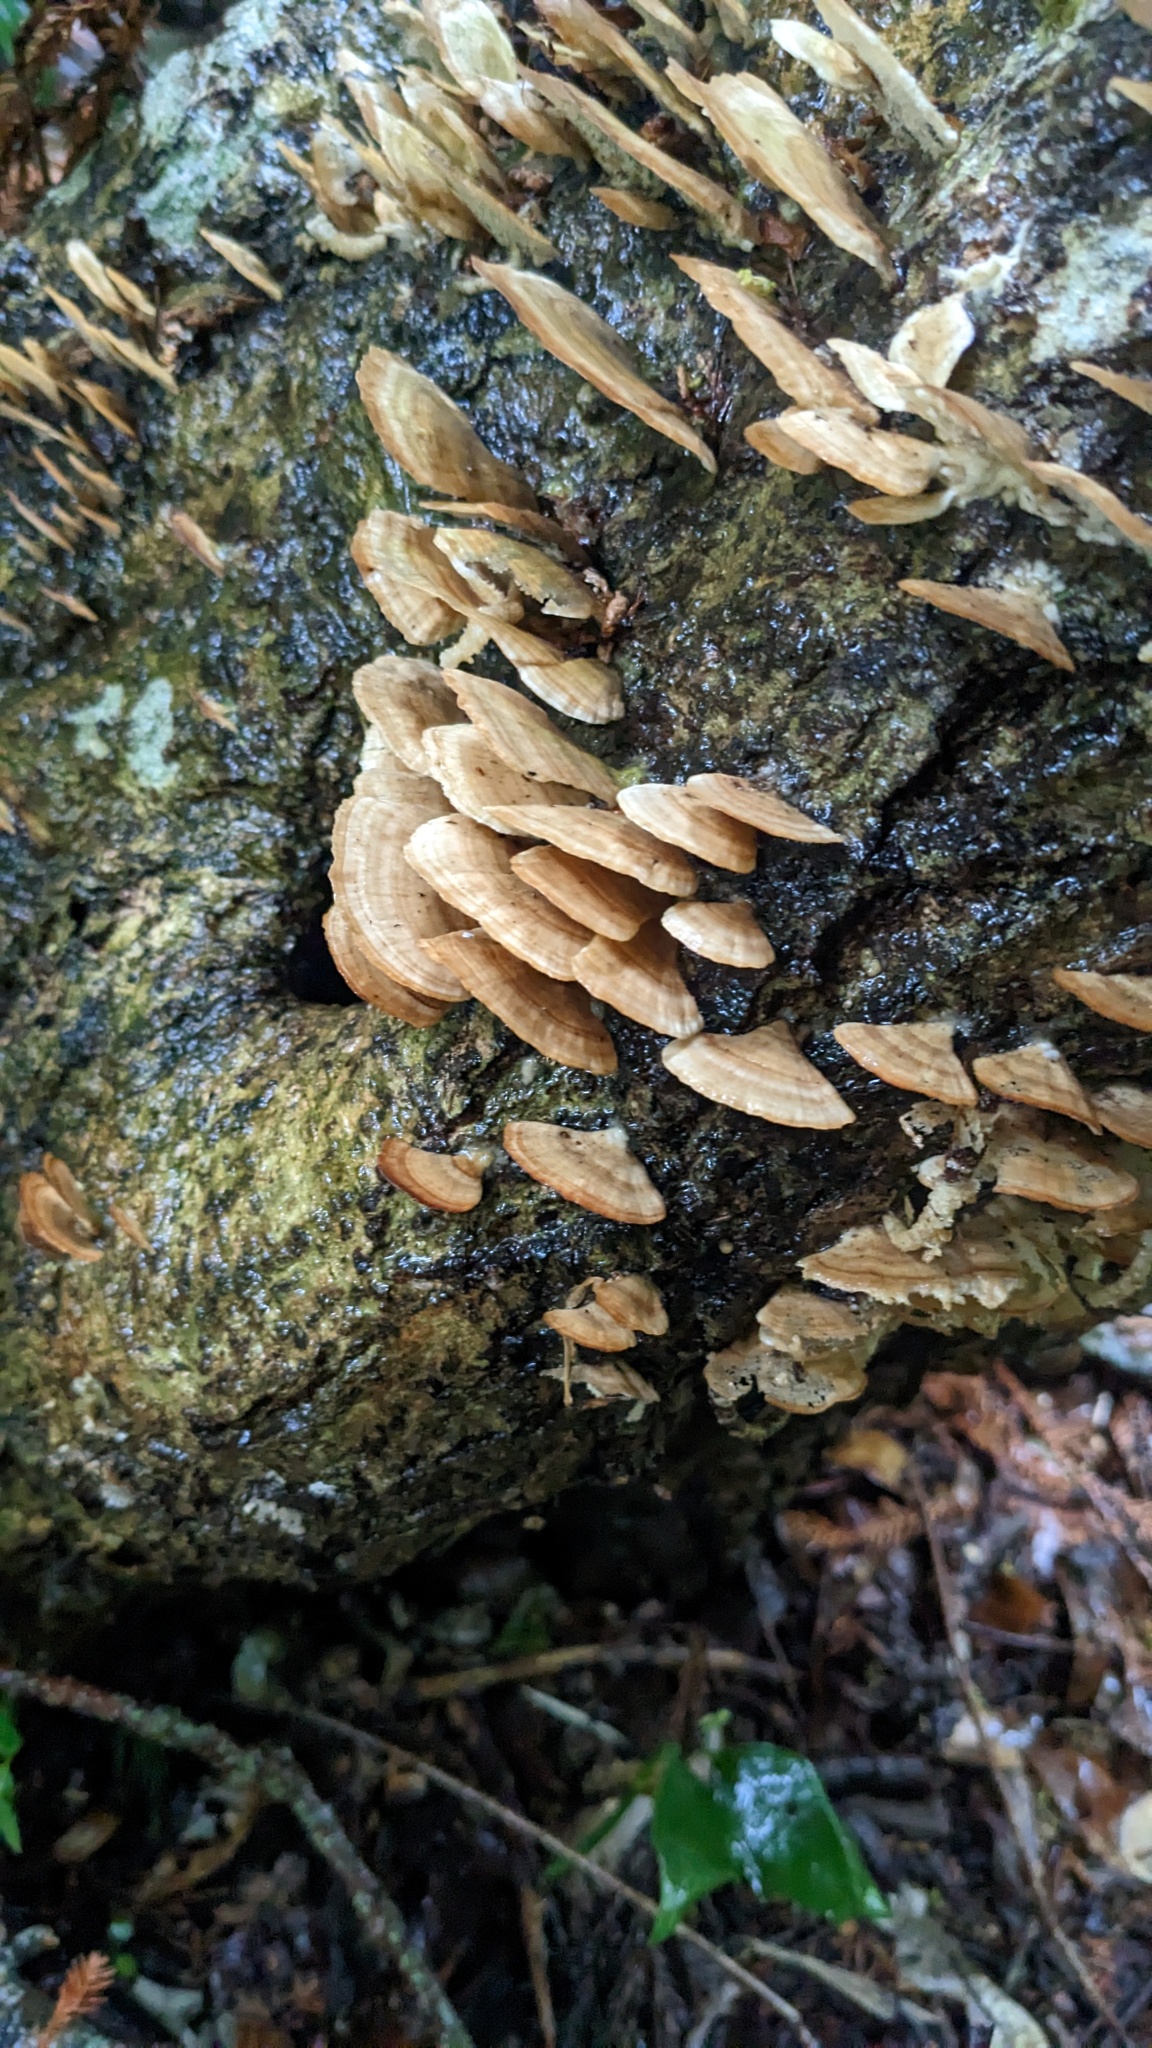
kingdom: Fungi
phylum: Basidiomycota
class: Agaricomycetes
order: Hymenochaetales
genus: Trichaptum
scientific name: Trichaptum biforme
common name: Violet-toothed polypore
